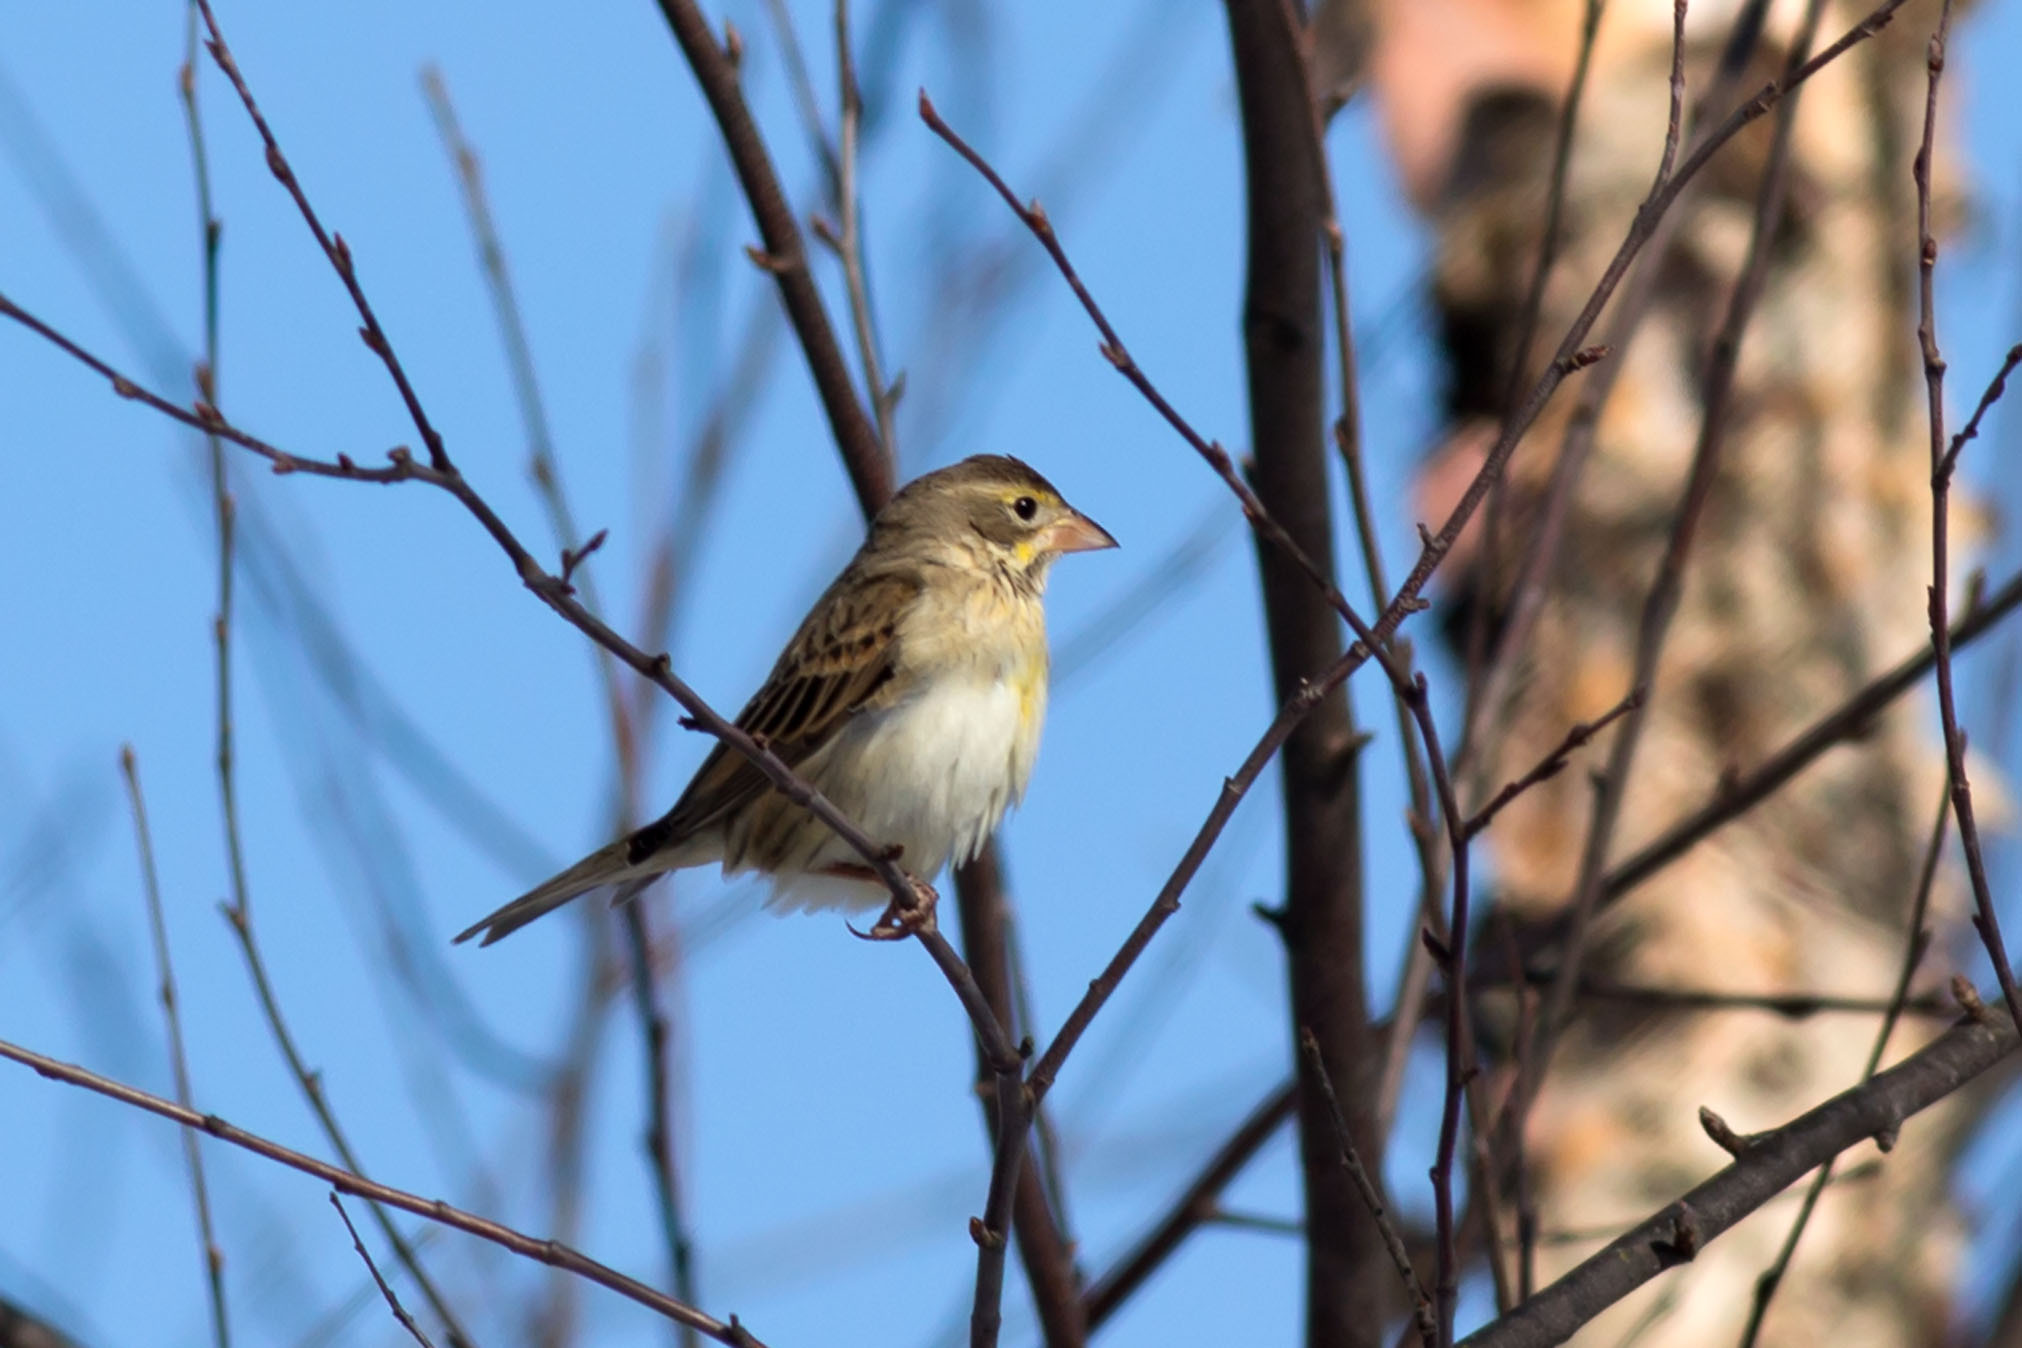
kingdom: Animalia
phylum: Chordata
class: Aves
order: Passeriformes
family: Cardinalidae
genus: Spiza
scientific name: Spiza americana
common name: Dickcissel
